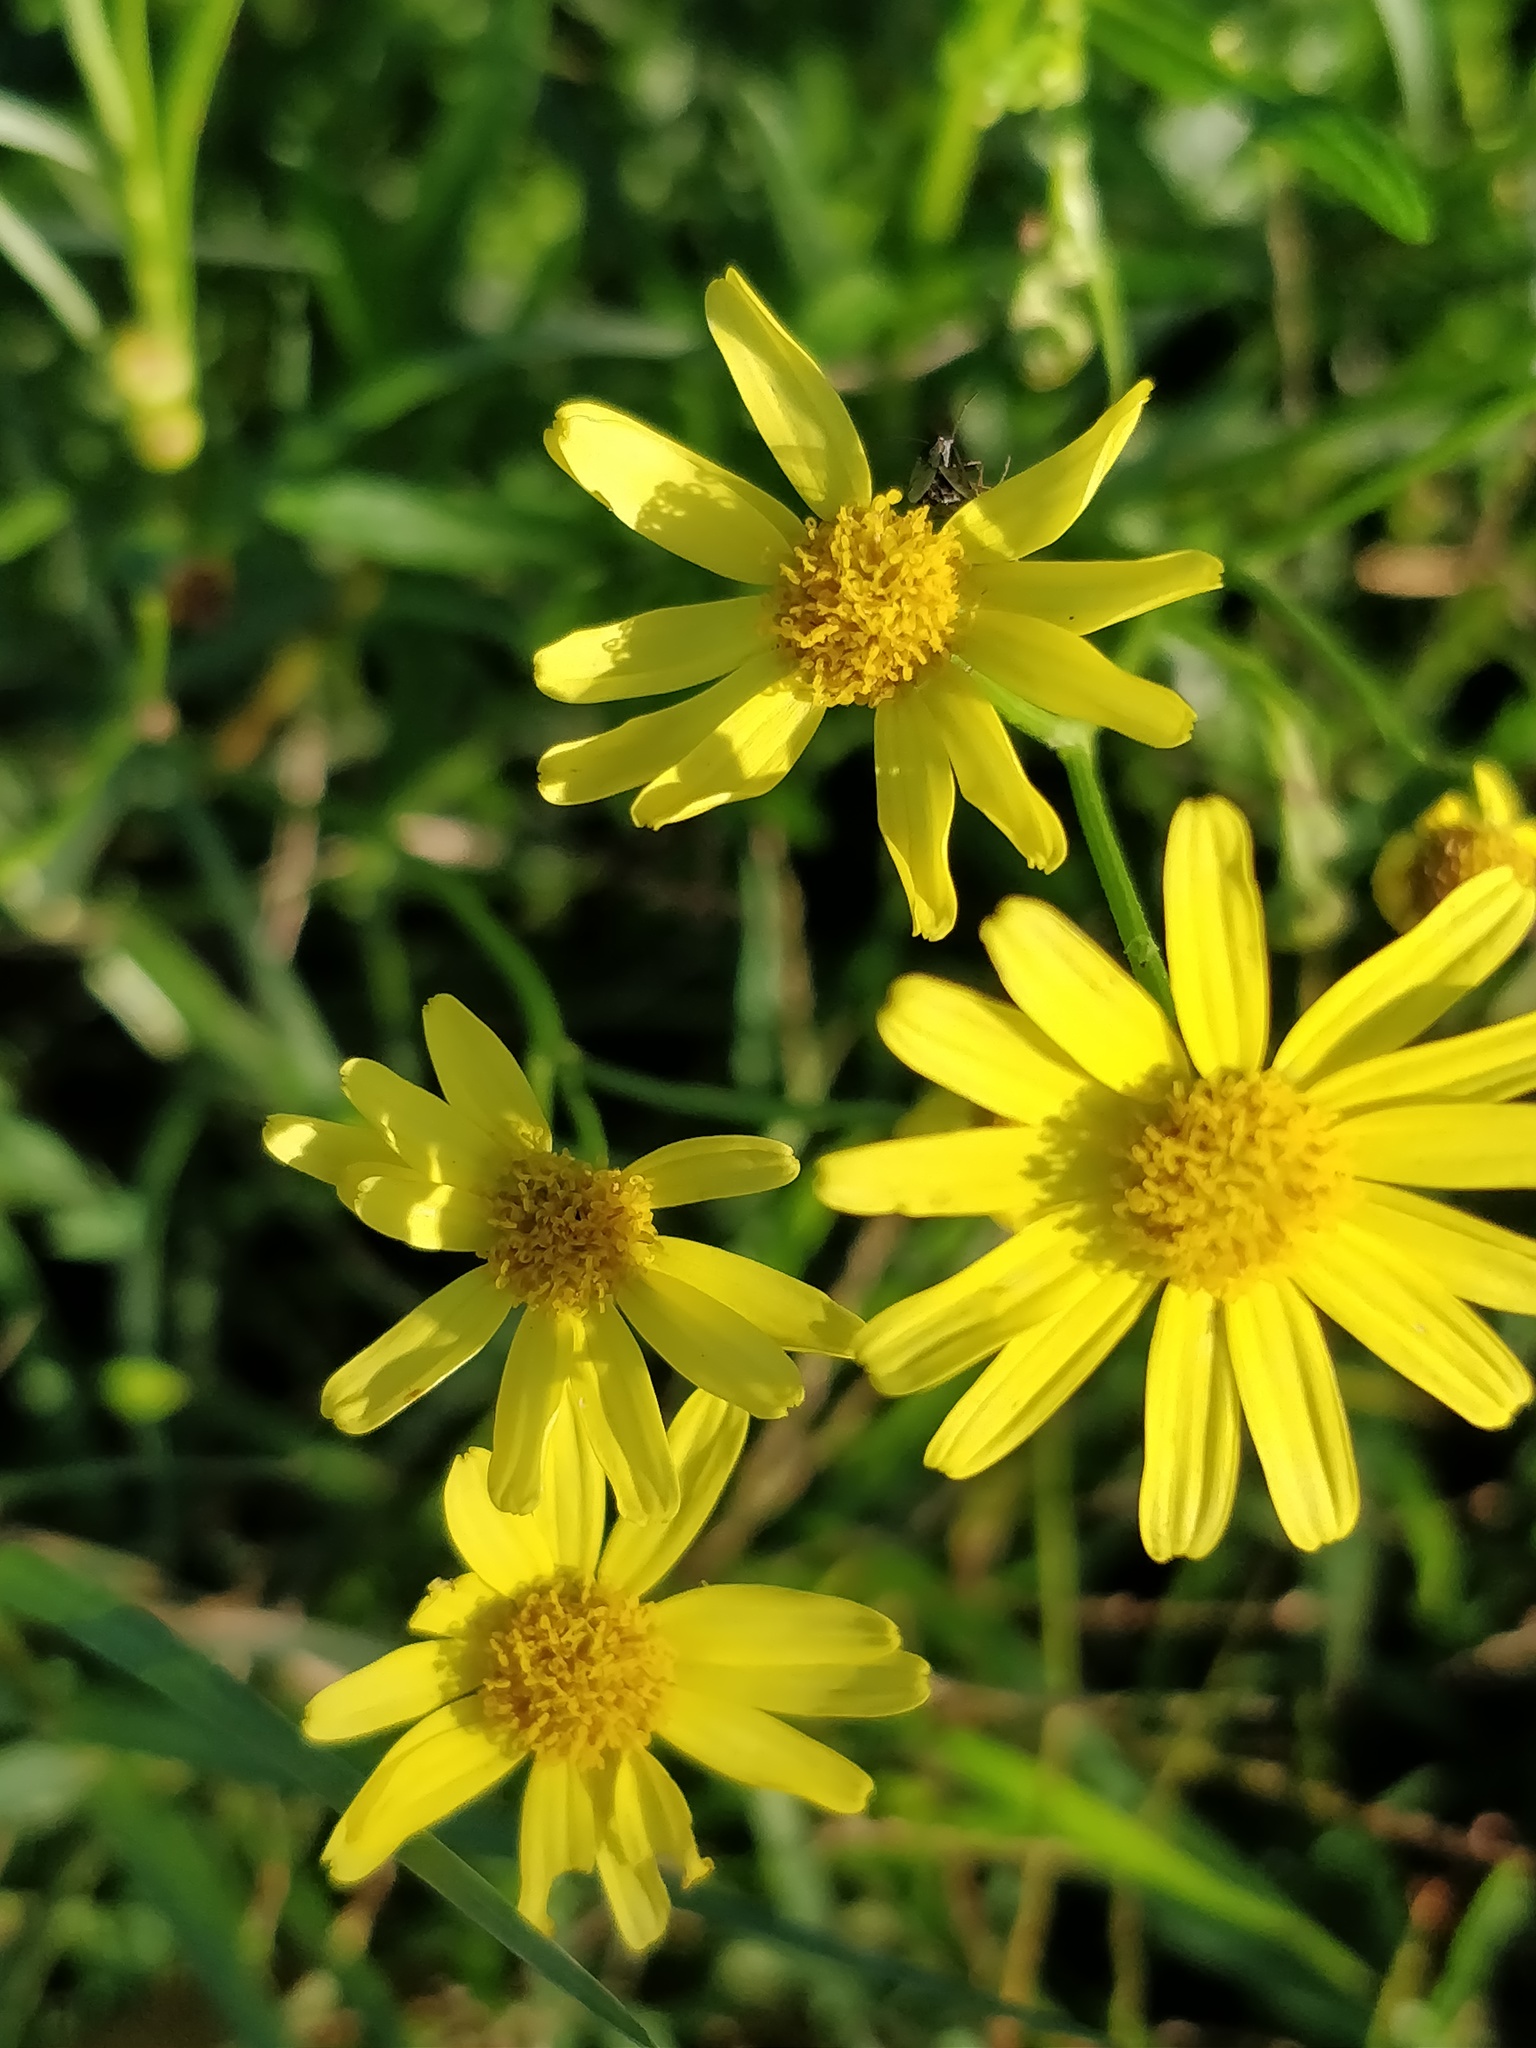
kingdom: Plantae
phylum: Tracheophyta
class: Magnoliopsida
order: Asterales
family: Asteraceae
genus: Senecio
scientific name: Senecio madagascariensis
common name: Madagascar ragwort
